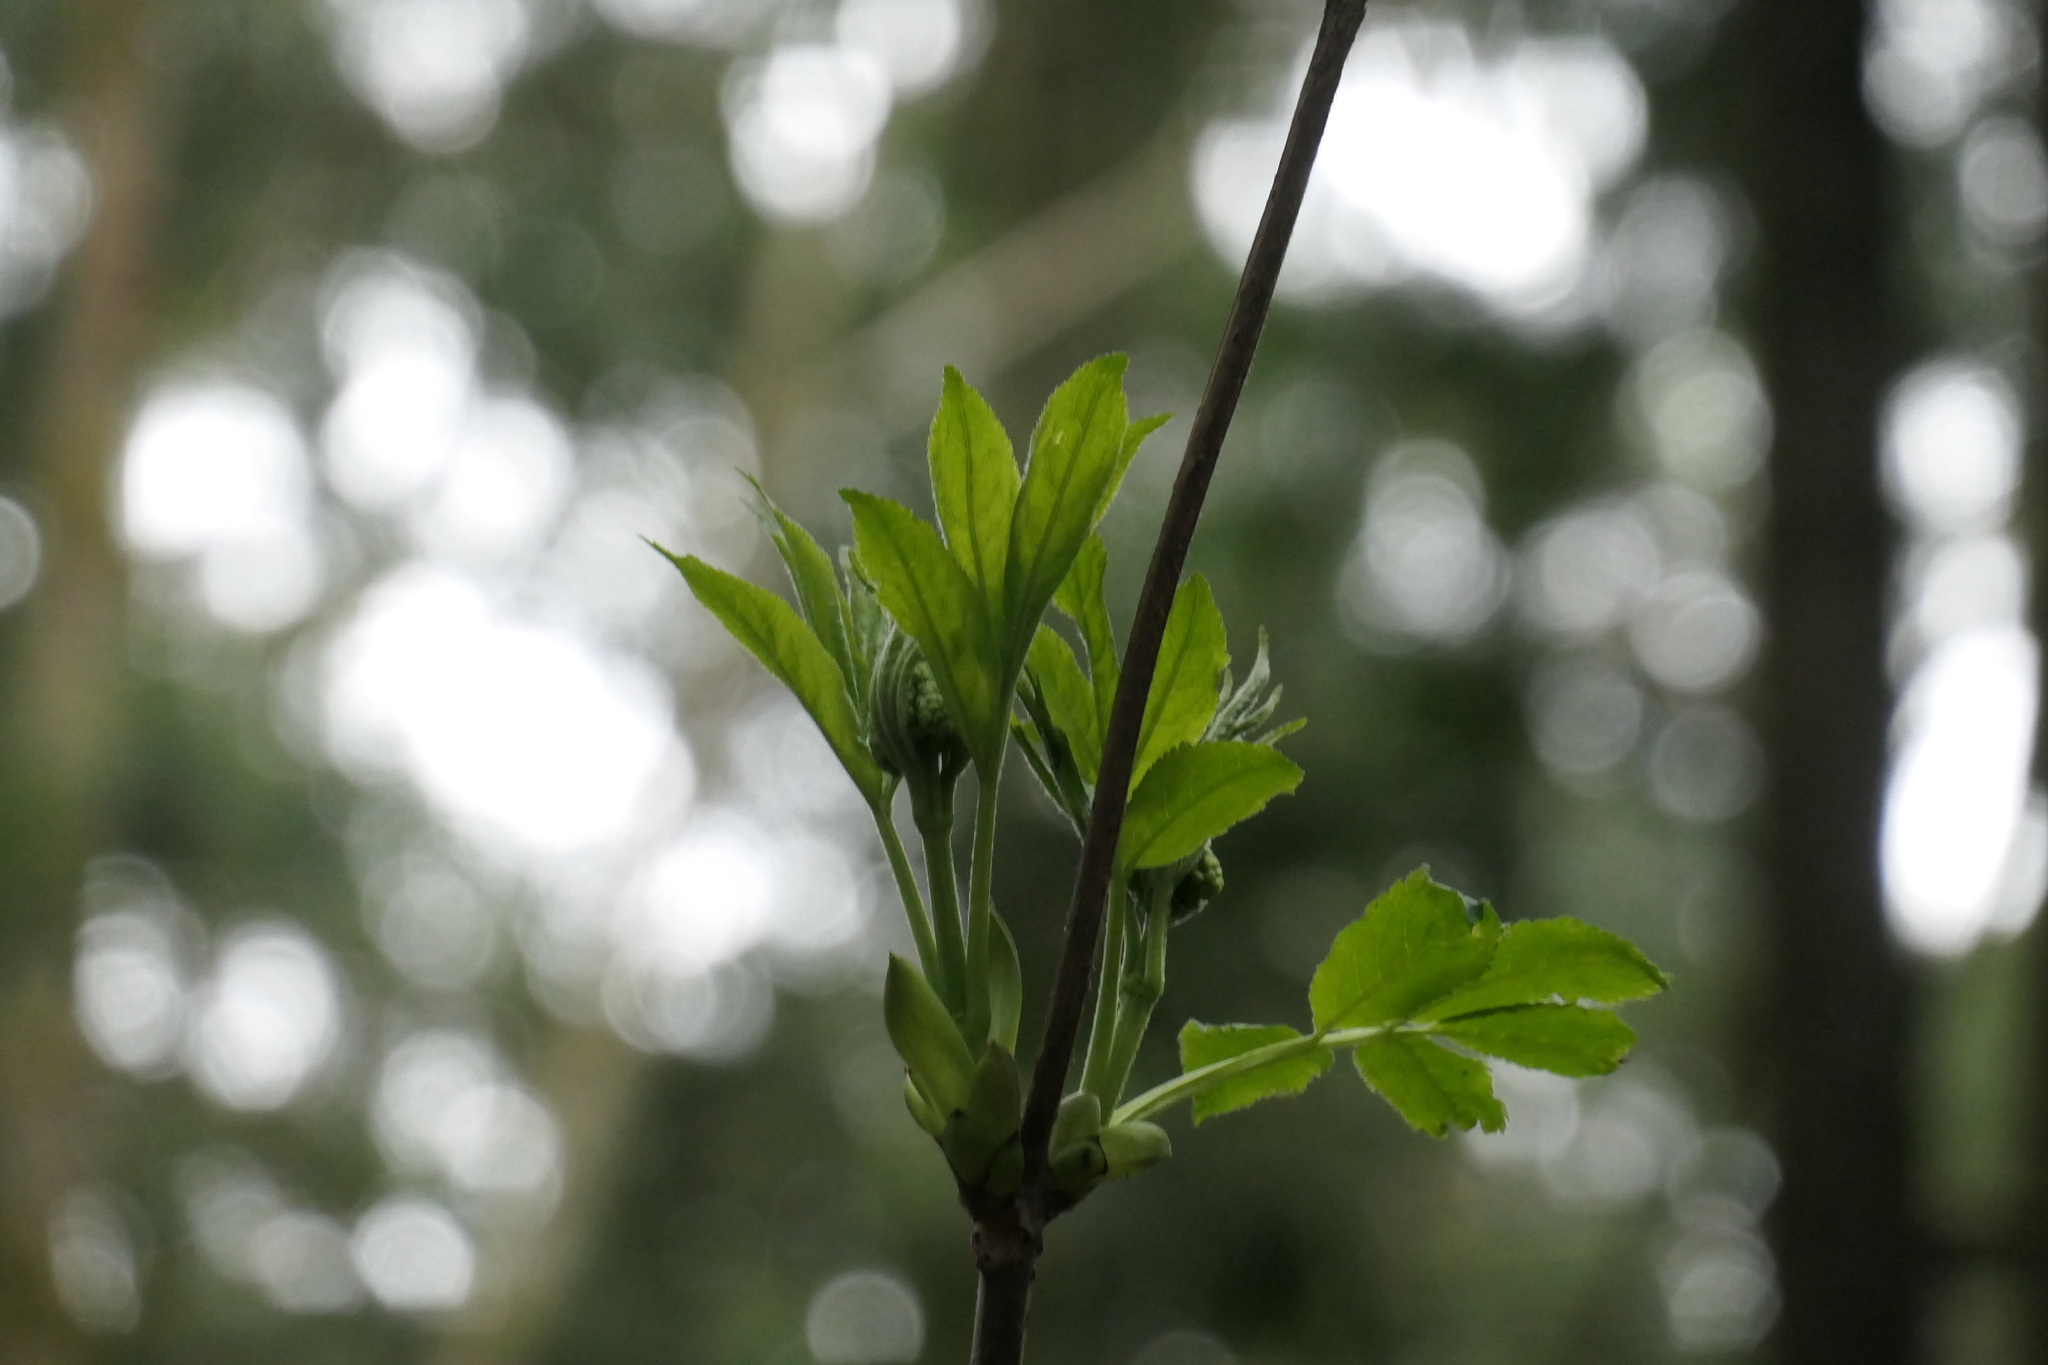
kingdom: Plantae
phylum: Tracheophyta
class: Magnoliopsida
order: Dipsacales
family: Viburnaceae
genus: Sambucus
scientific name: Sambucus racemosa
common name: Red-berried elder
